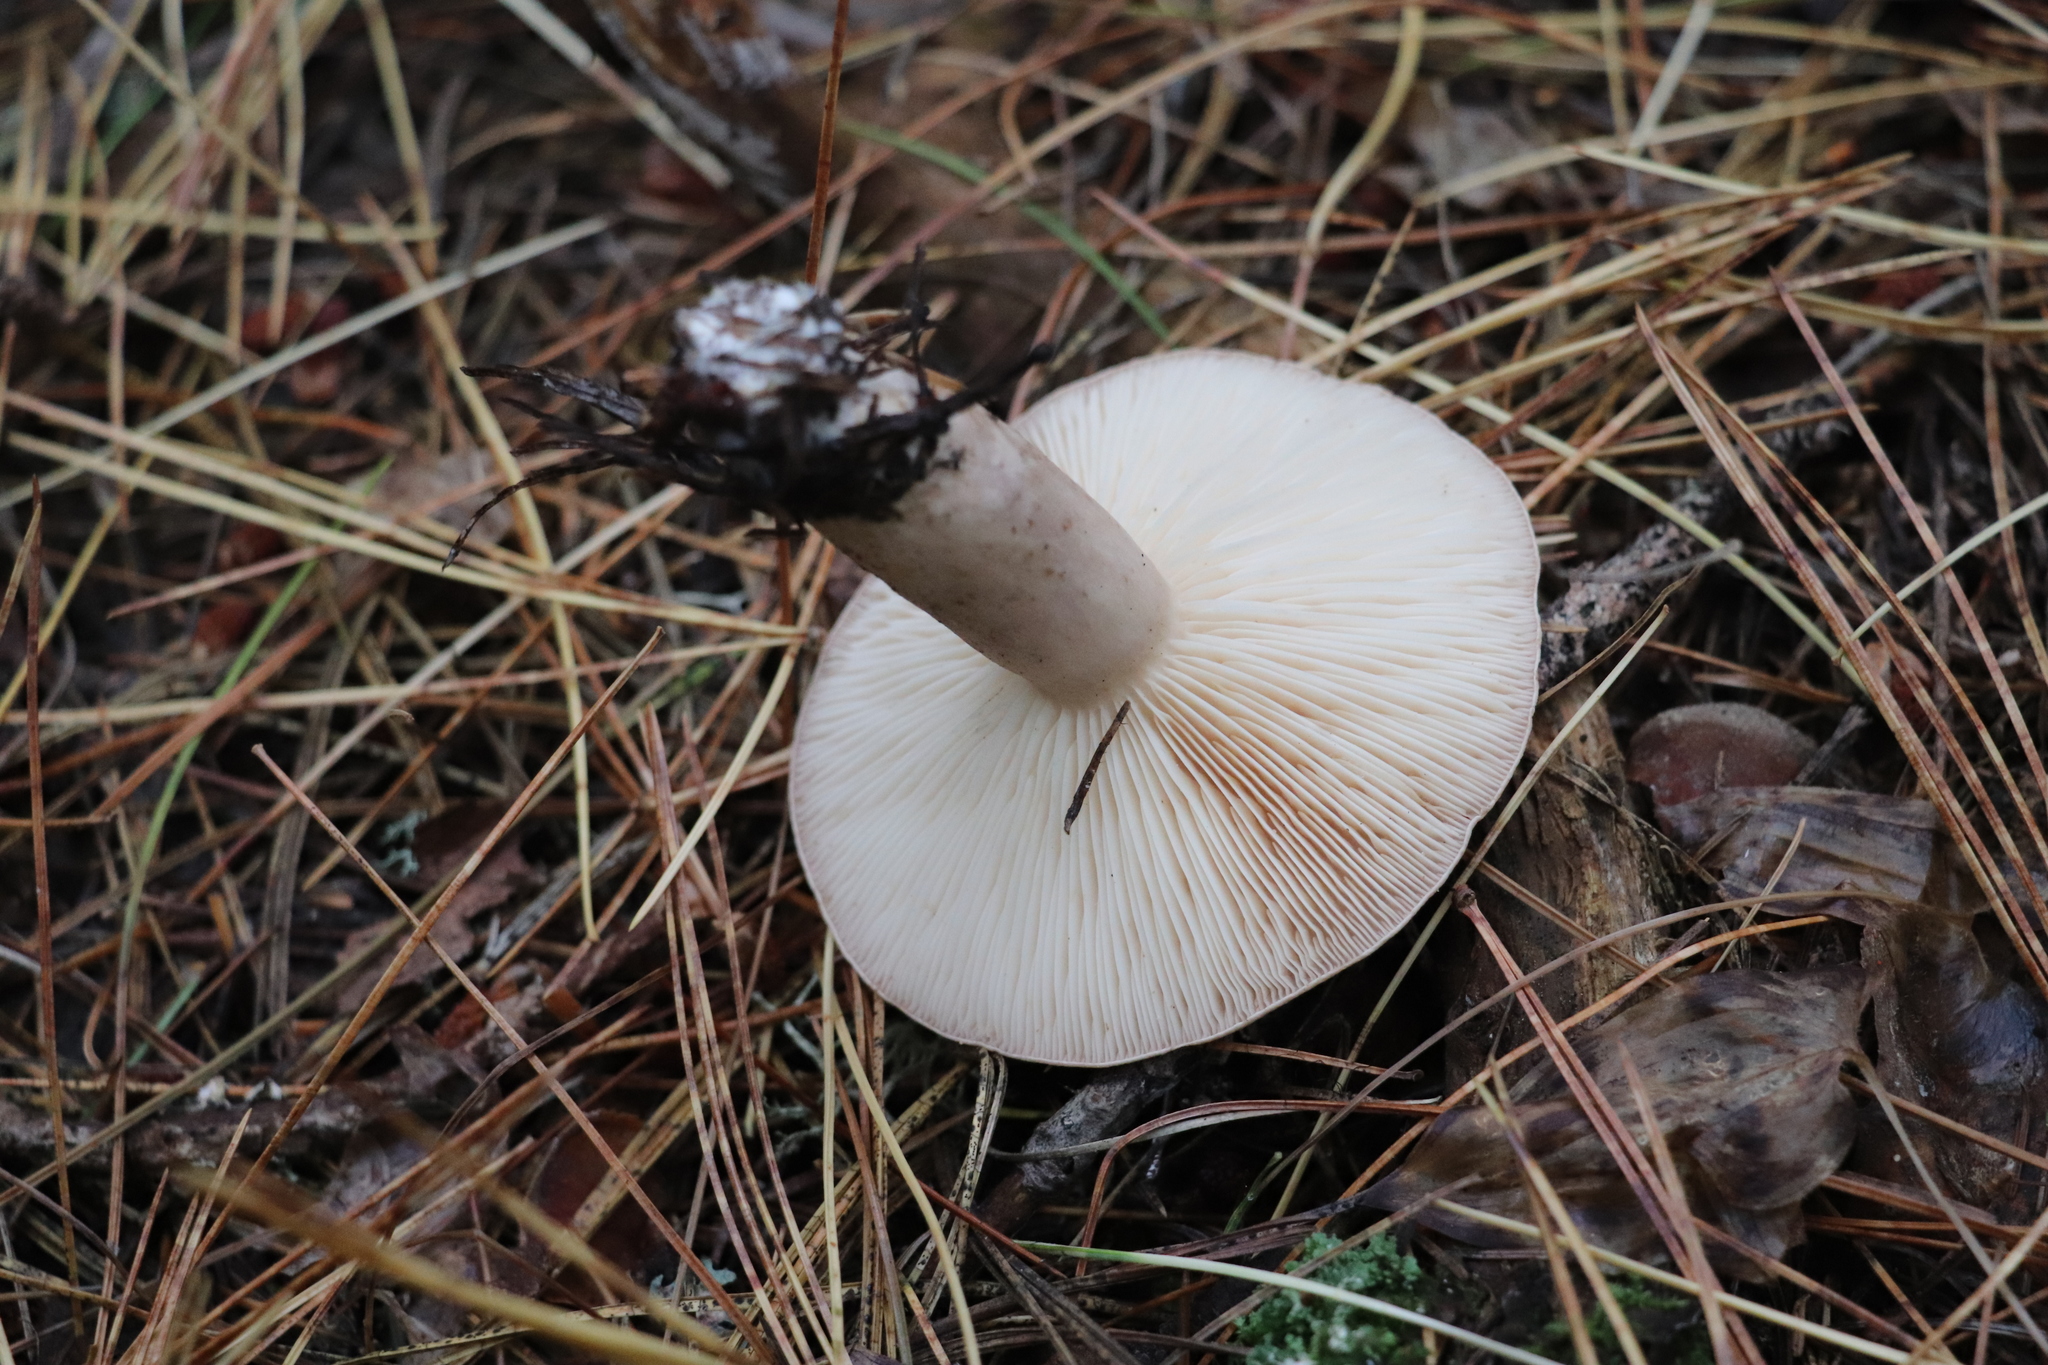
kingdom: Fungi
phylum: Basidiomycota
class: Agaricomycetes
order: Russulales
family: Russulaceae
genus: Lactarius
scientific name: Lactarius trivialis
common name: Tacked milkcap
